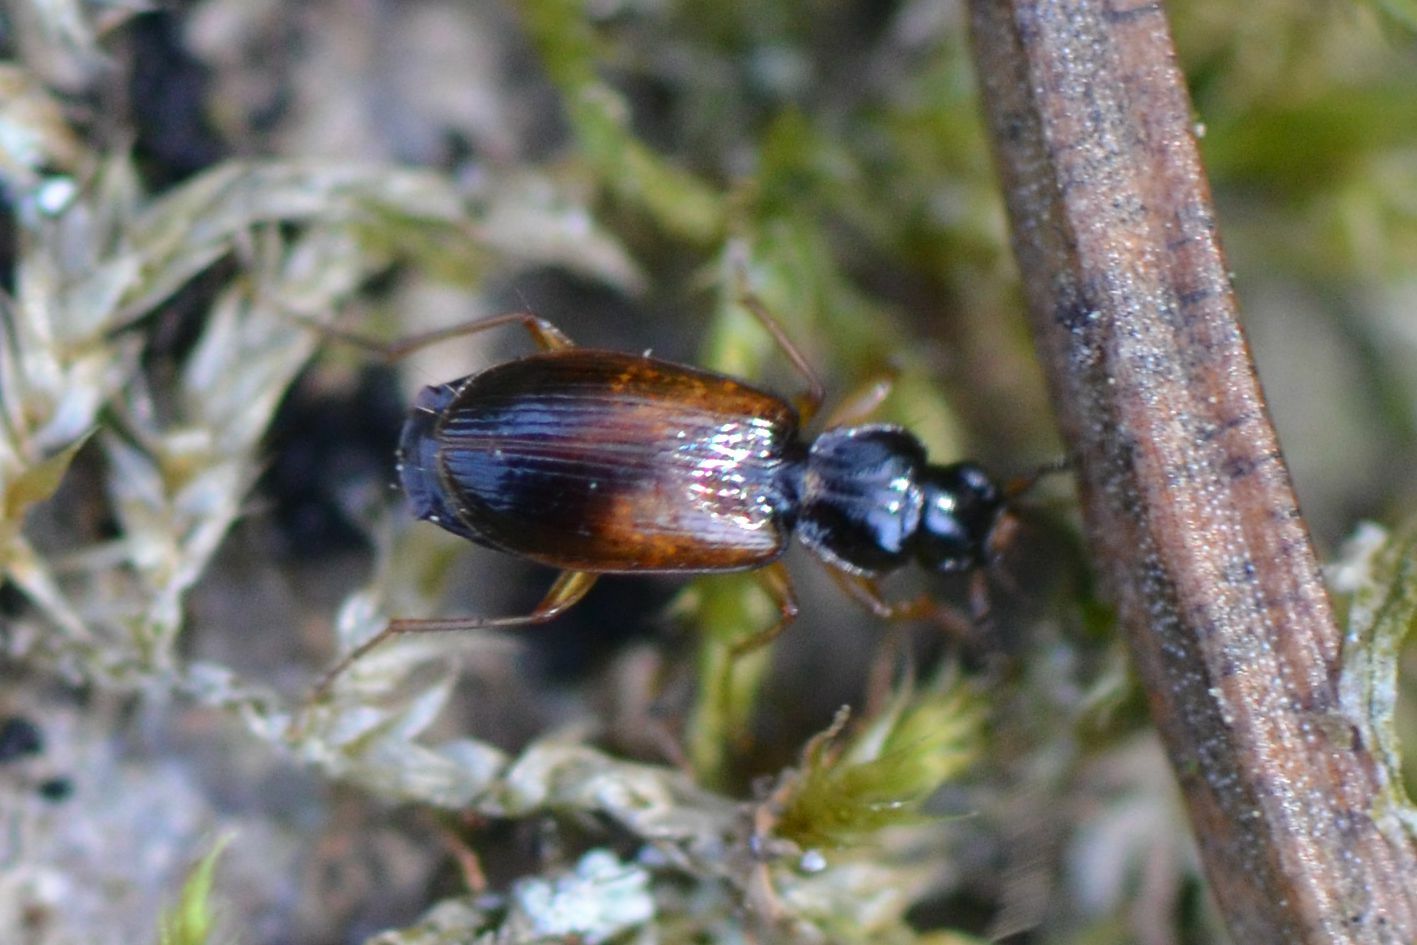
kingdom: Animalia
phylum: Arthropoda
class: Insecta
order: Coleoptera
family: Carabidae
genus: Badister
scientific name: Badister sodalis
